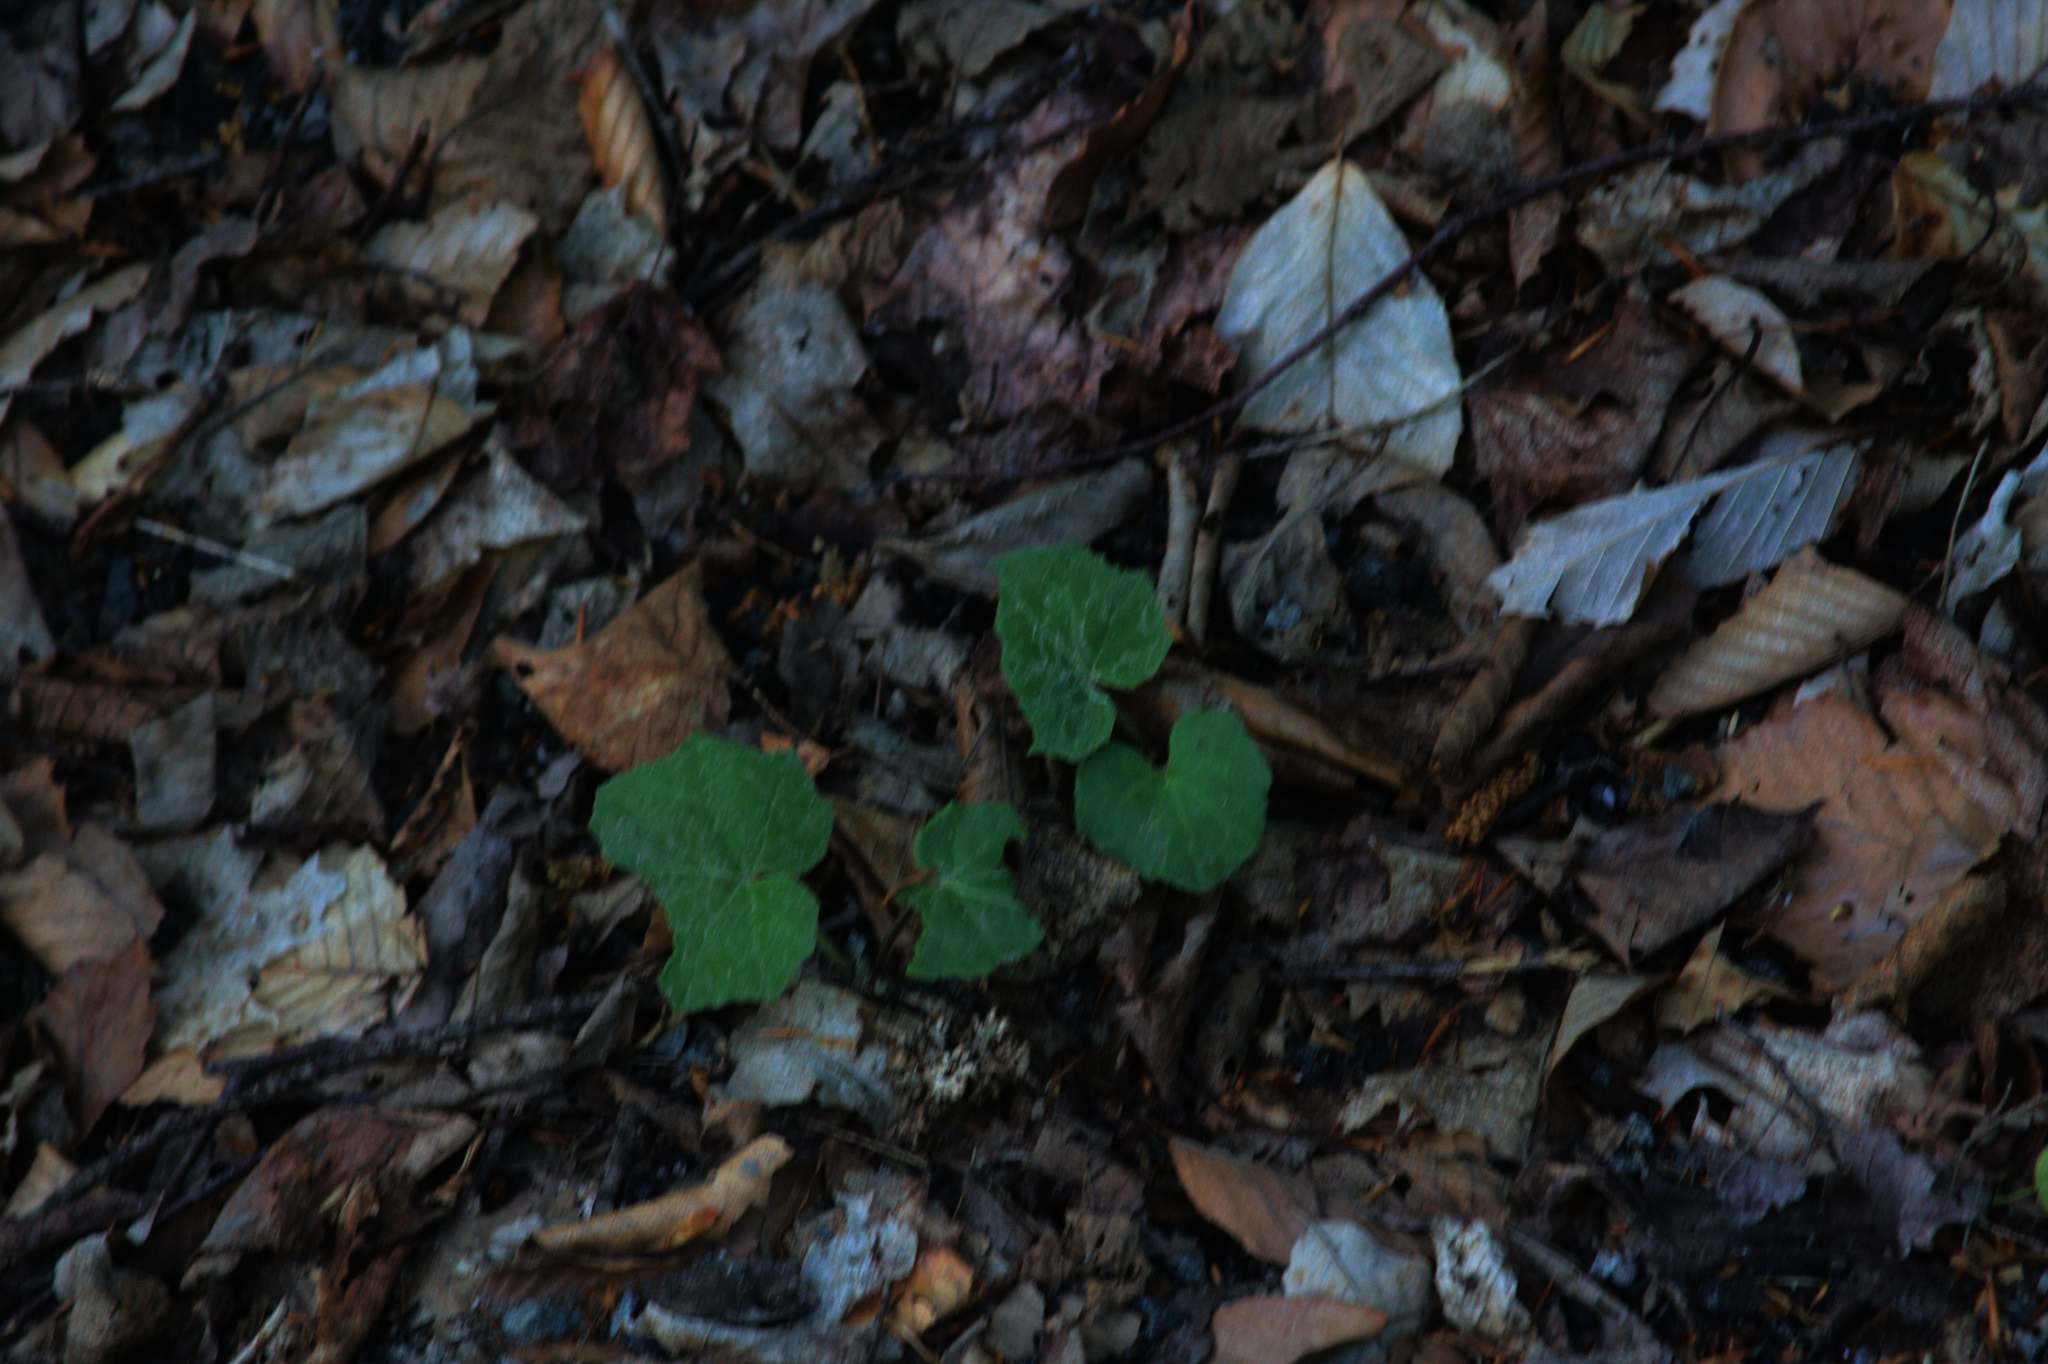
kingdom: Plantae
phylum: Tracheophyta
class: Magnoliopsida
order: Asterales
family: Asteraceae
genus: Tussilago
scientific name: Tussilago farfara
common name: Coltsfoot
